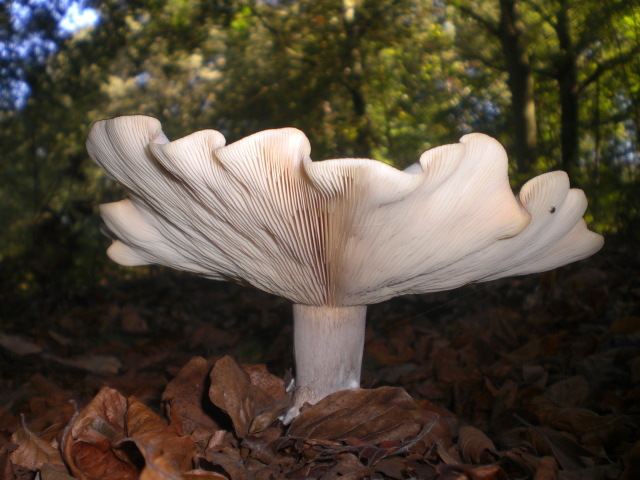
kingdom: Fungi
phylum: Basidiomycota
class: Agaricomycetes
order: Agaricales
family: Tricholomataceae
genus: Clitocybe
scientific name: Clitocybe nebularis
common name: Clouded agaric
